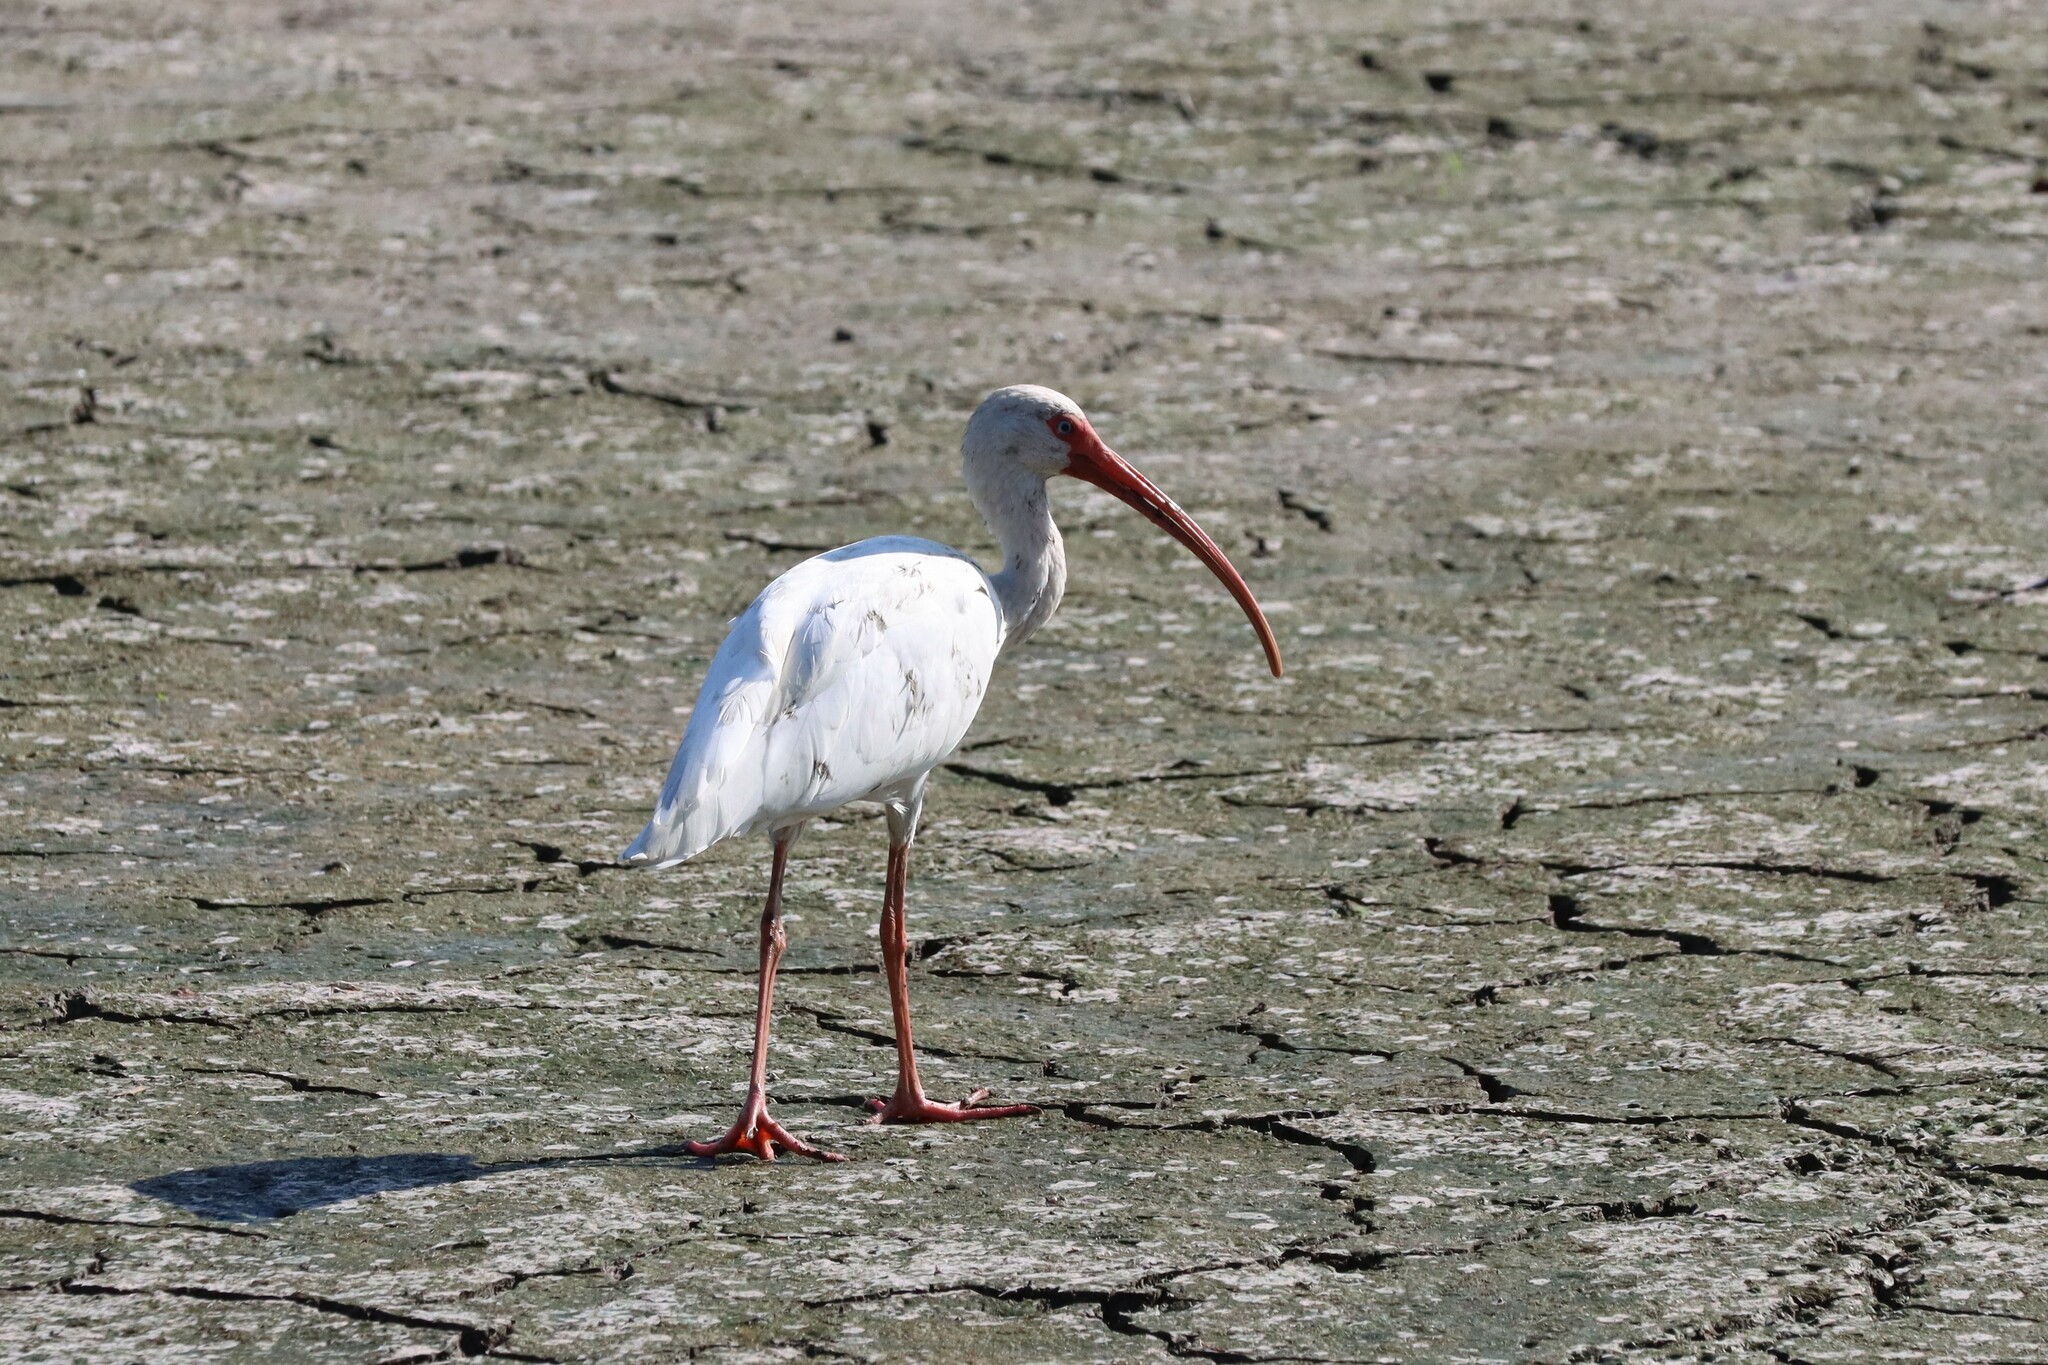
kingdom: Animalia
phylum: Chordata
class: Aves
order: Pelecaniformes
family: Threskiornithidae
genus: Eudocimus
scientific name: Eudocimus albus
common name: White ibis
